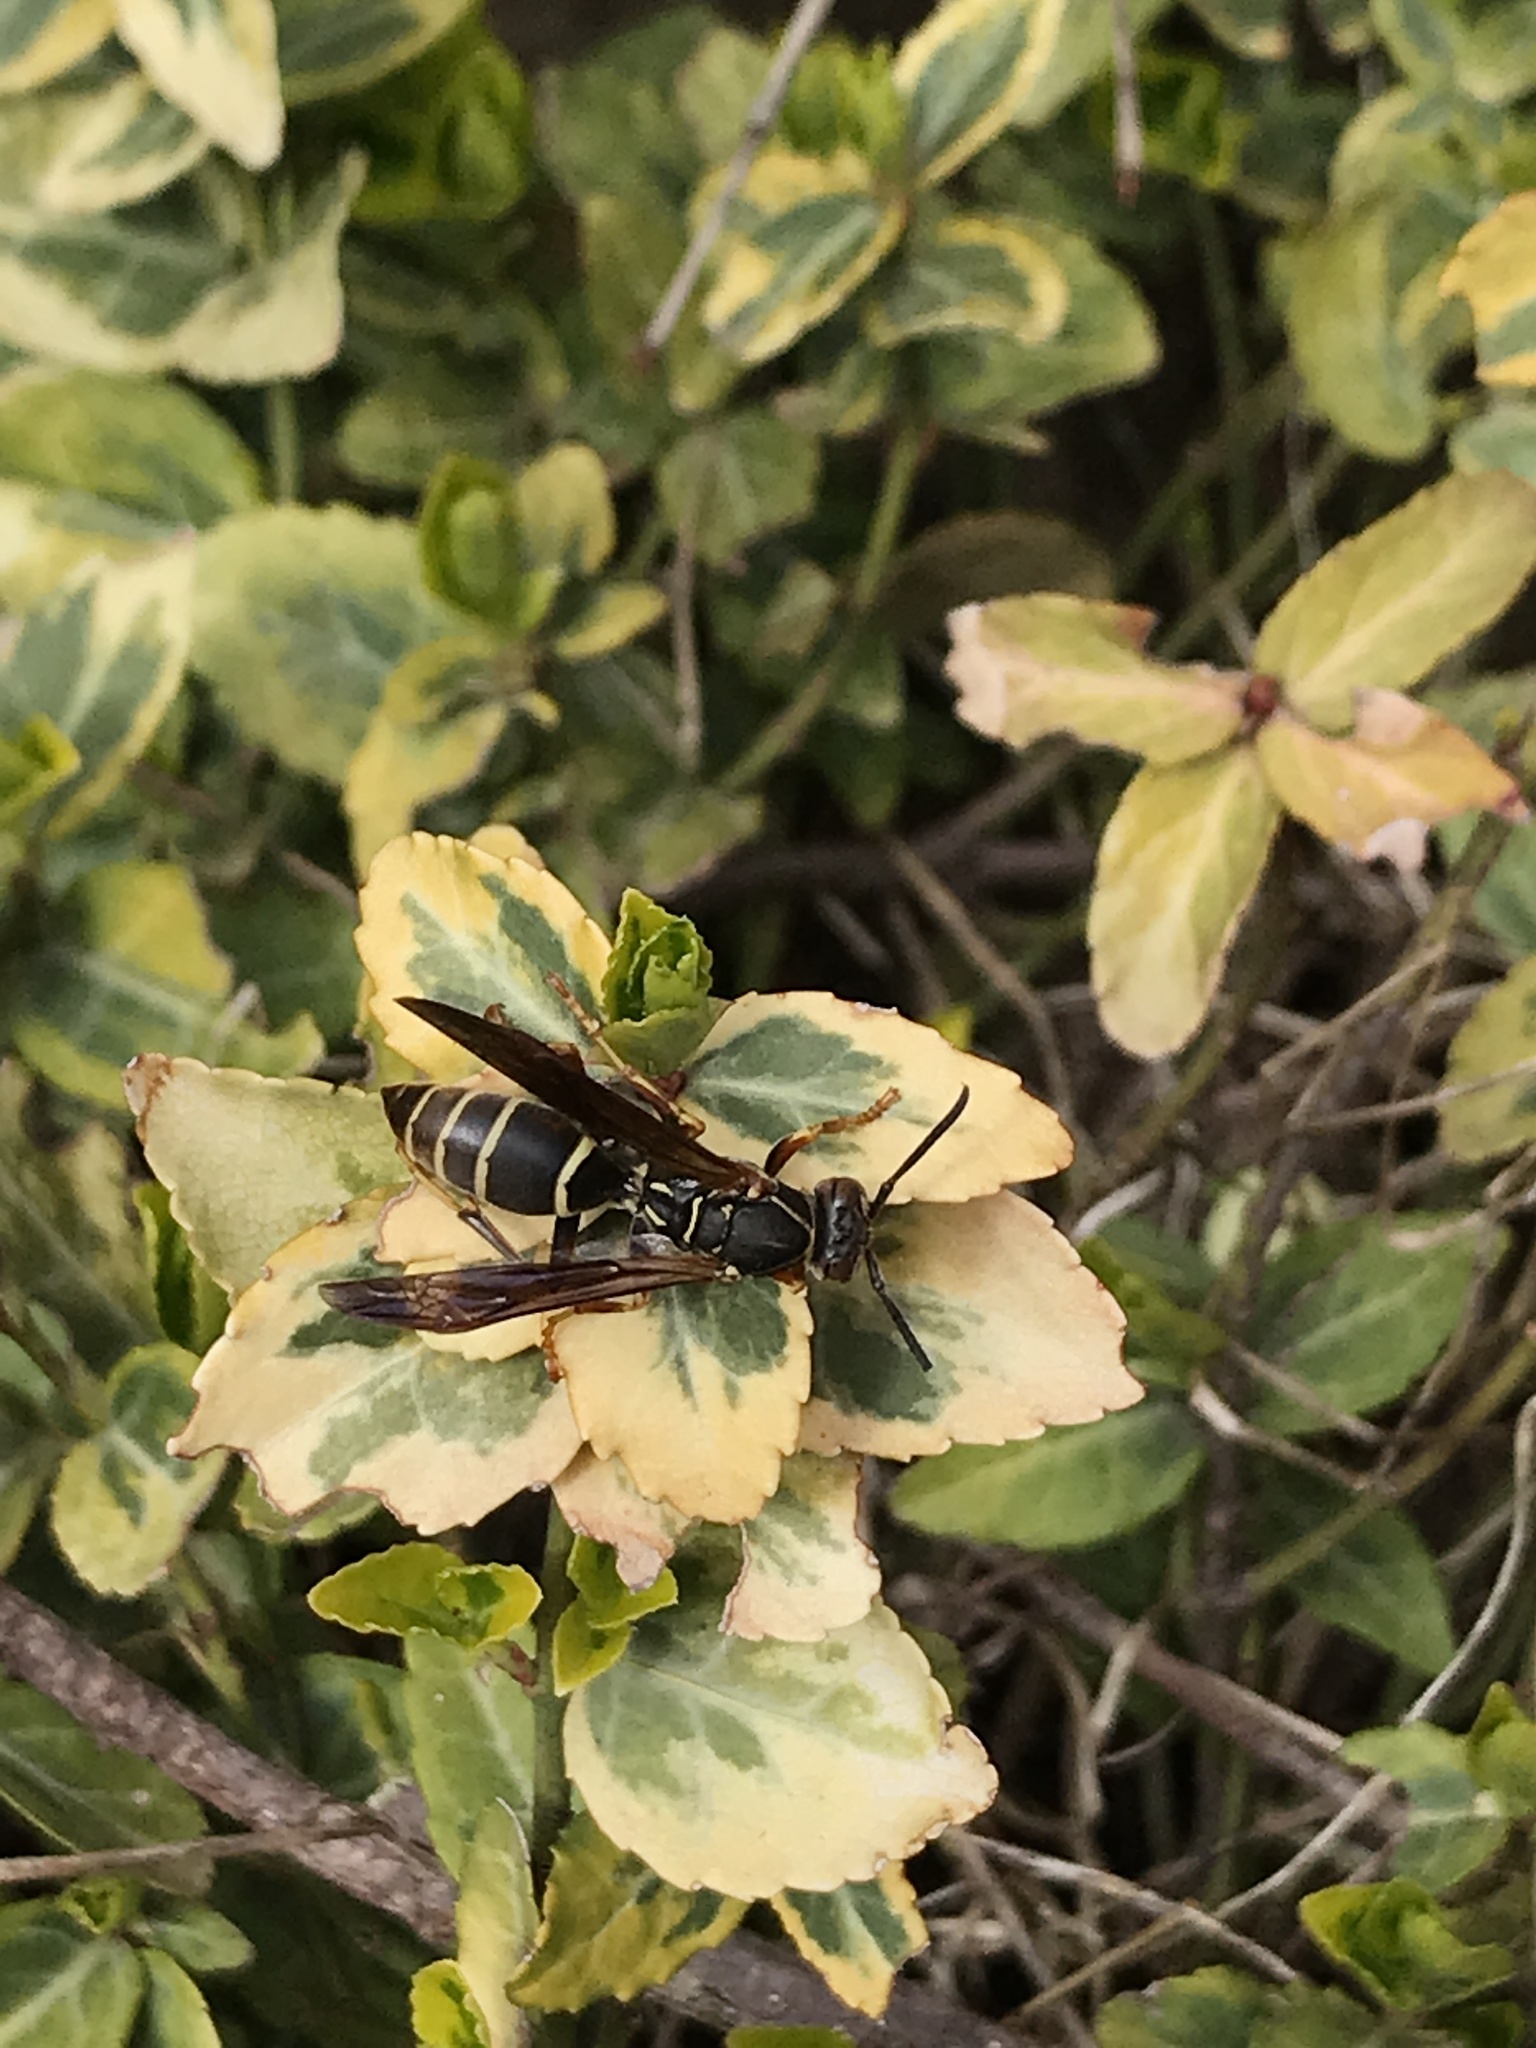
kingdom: Animalia
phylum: Arthropoda
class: Insecta
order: Hymenoptera
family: Eumenidae
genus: Polistes
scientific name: Polistes fuscatus
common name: Dark paper wasp
